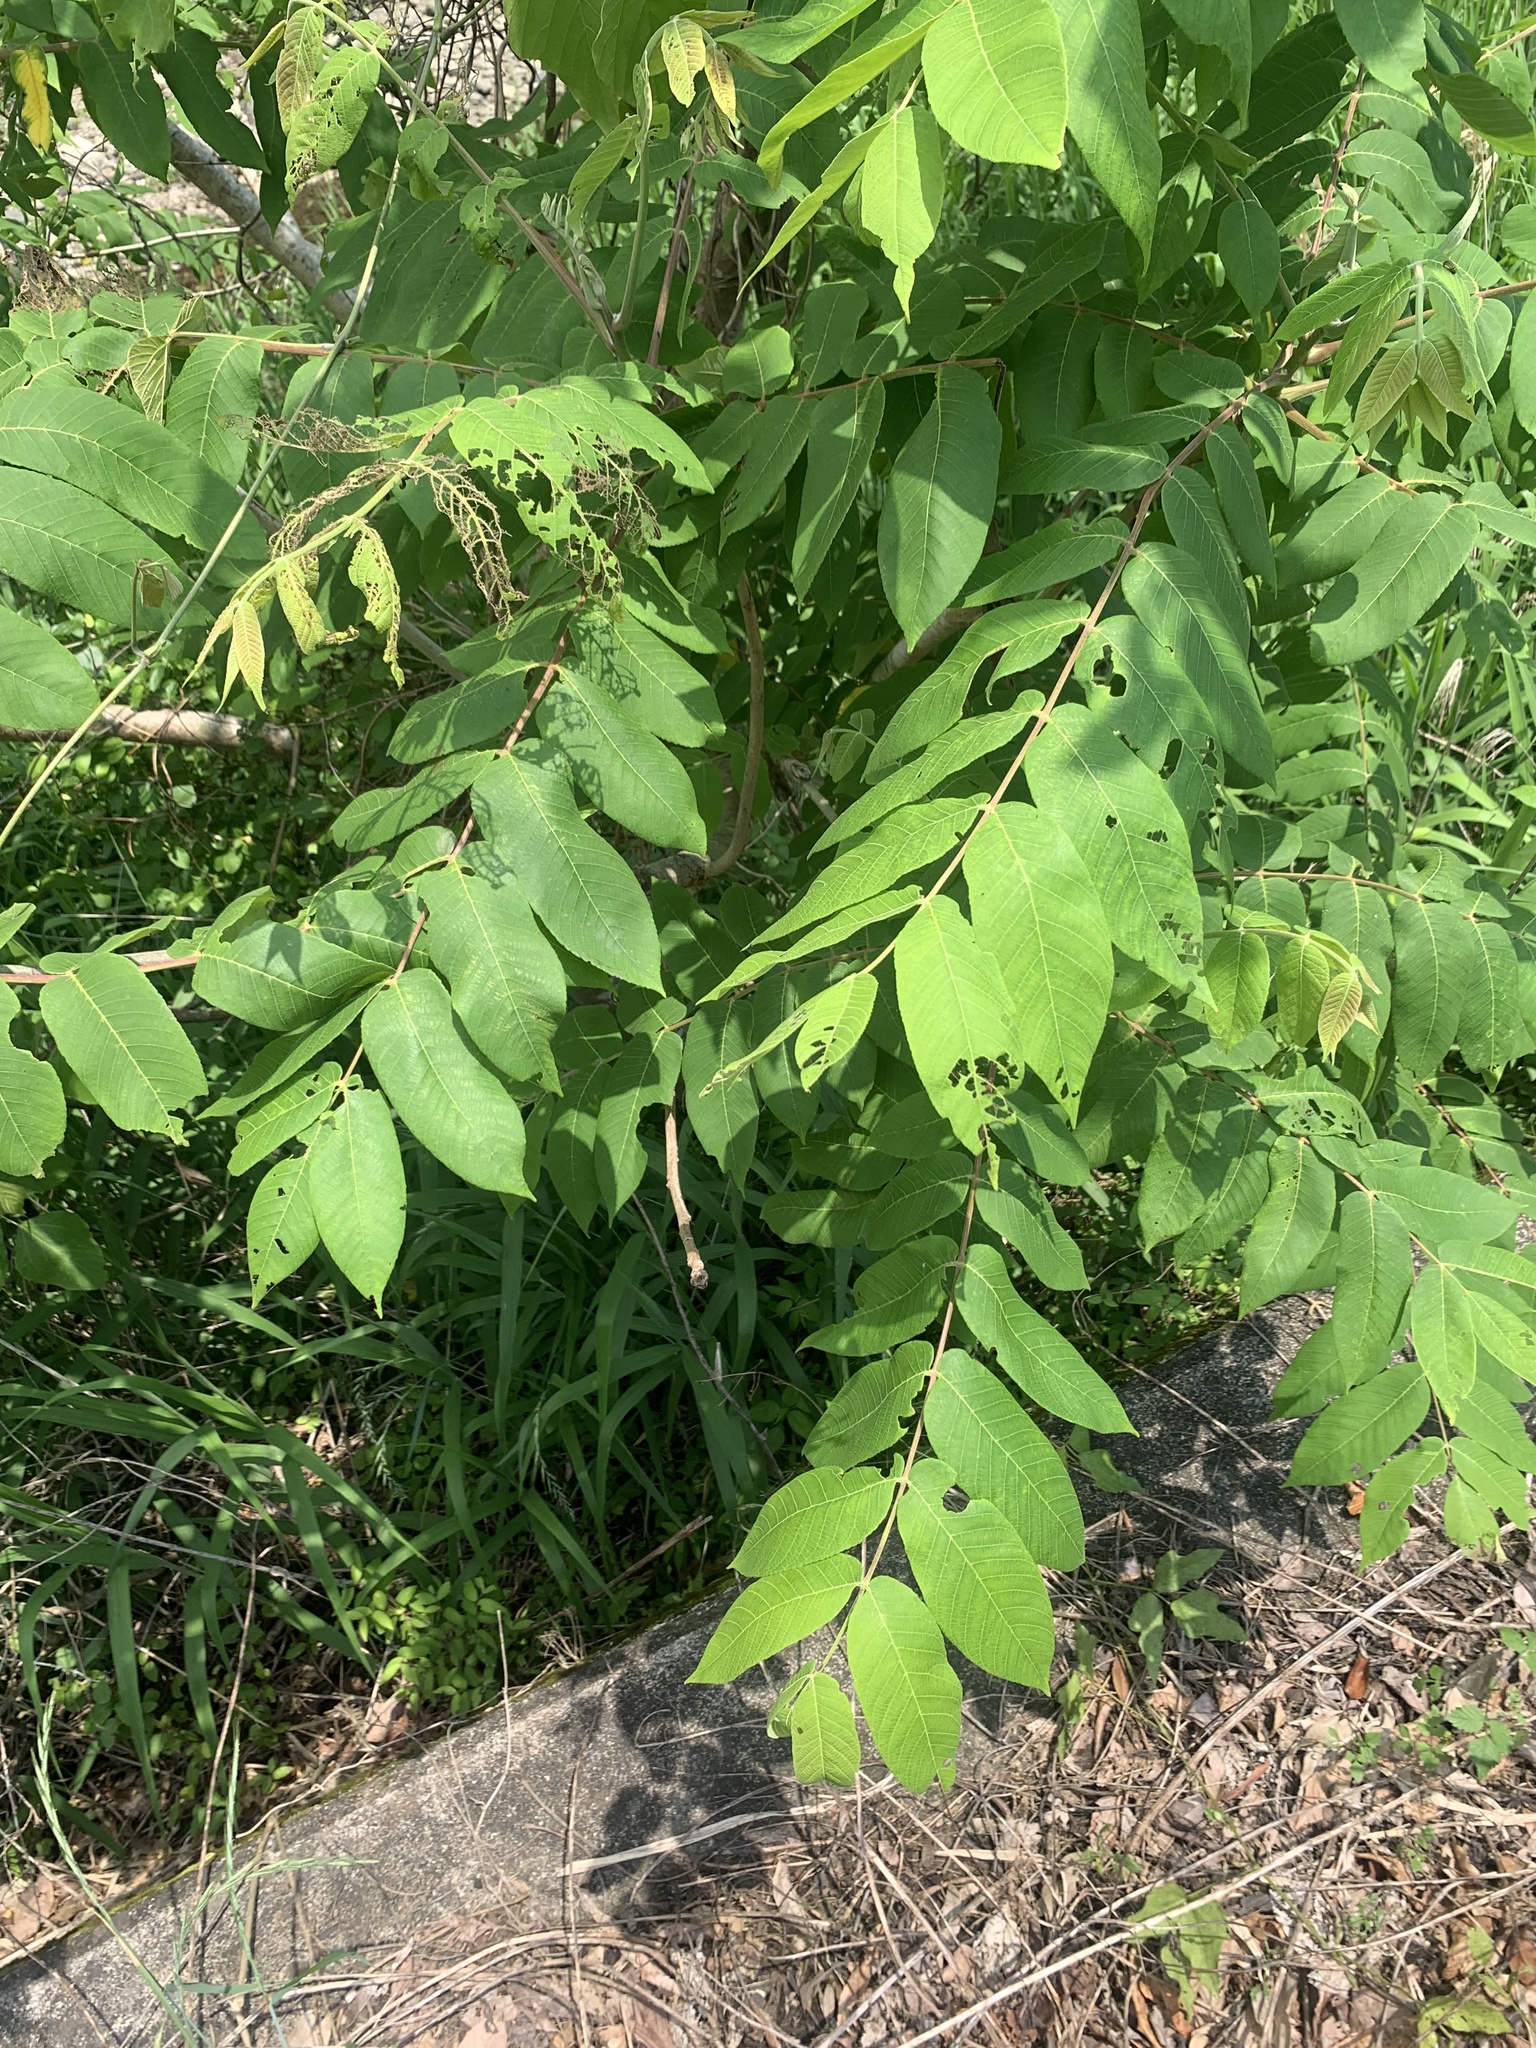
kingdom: Plantae
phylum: Tracheophyta
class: Magnoliopsida
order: Fagales
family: Juglandaceae
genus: Juglans
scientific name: Juglans ailantifolia
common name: Japanese walnut
